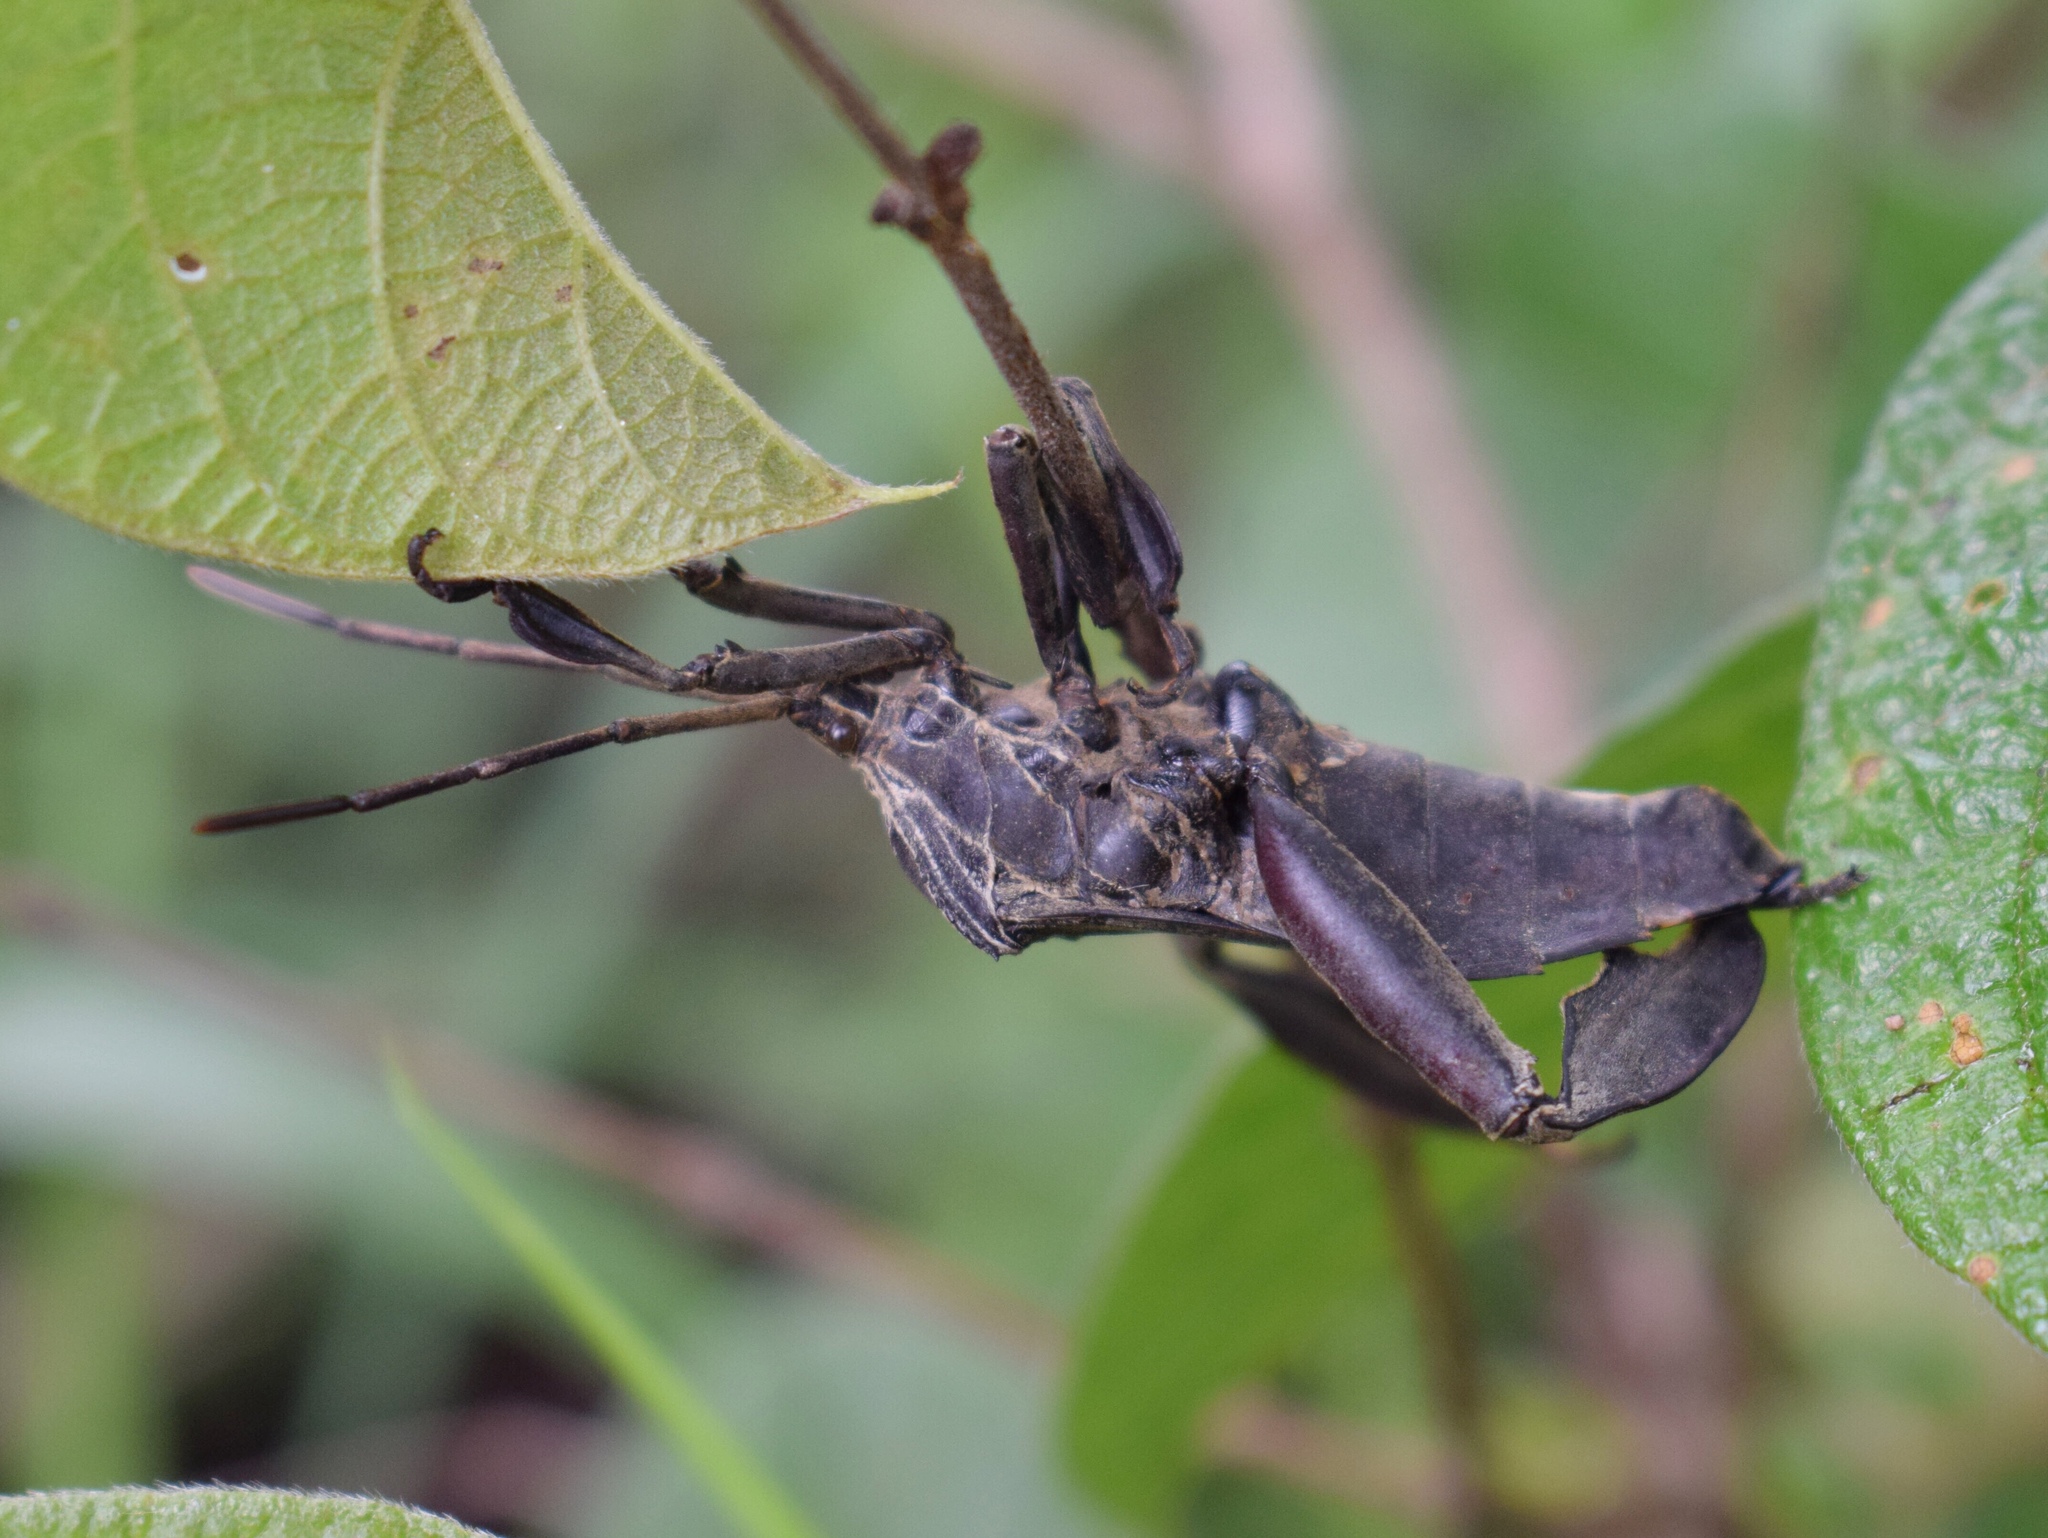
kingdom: Animalia
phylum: Arthropoda
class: Insecta
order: Hemiptera
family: Coreidae
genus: Petascelis
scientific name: Petascelis remipes
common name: Giant twig wilter
